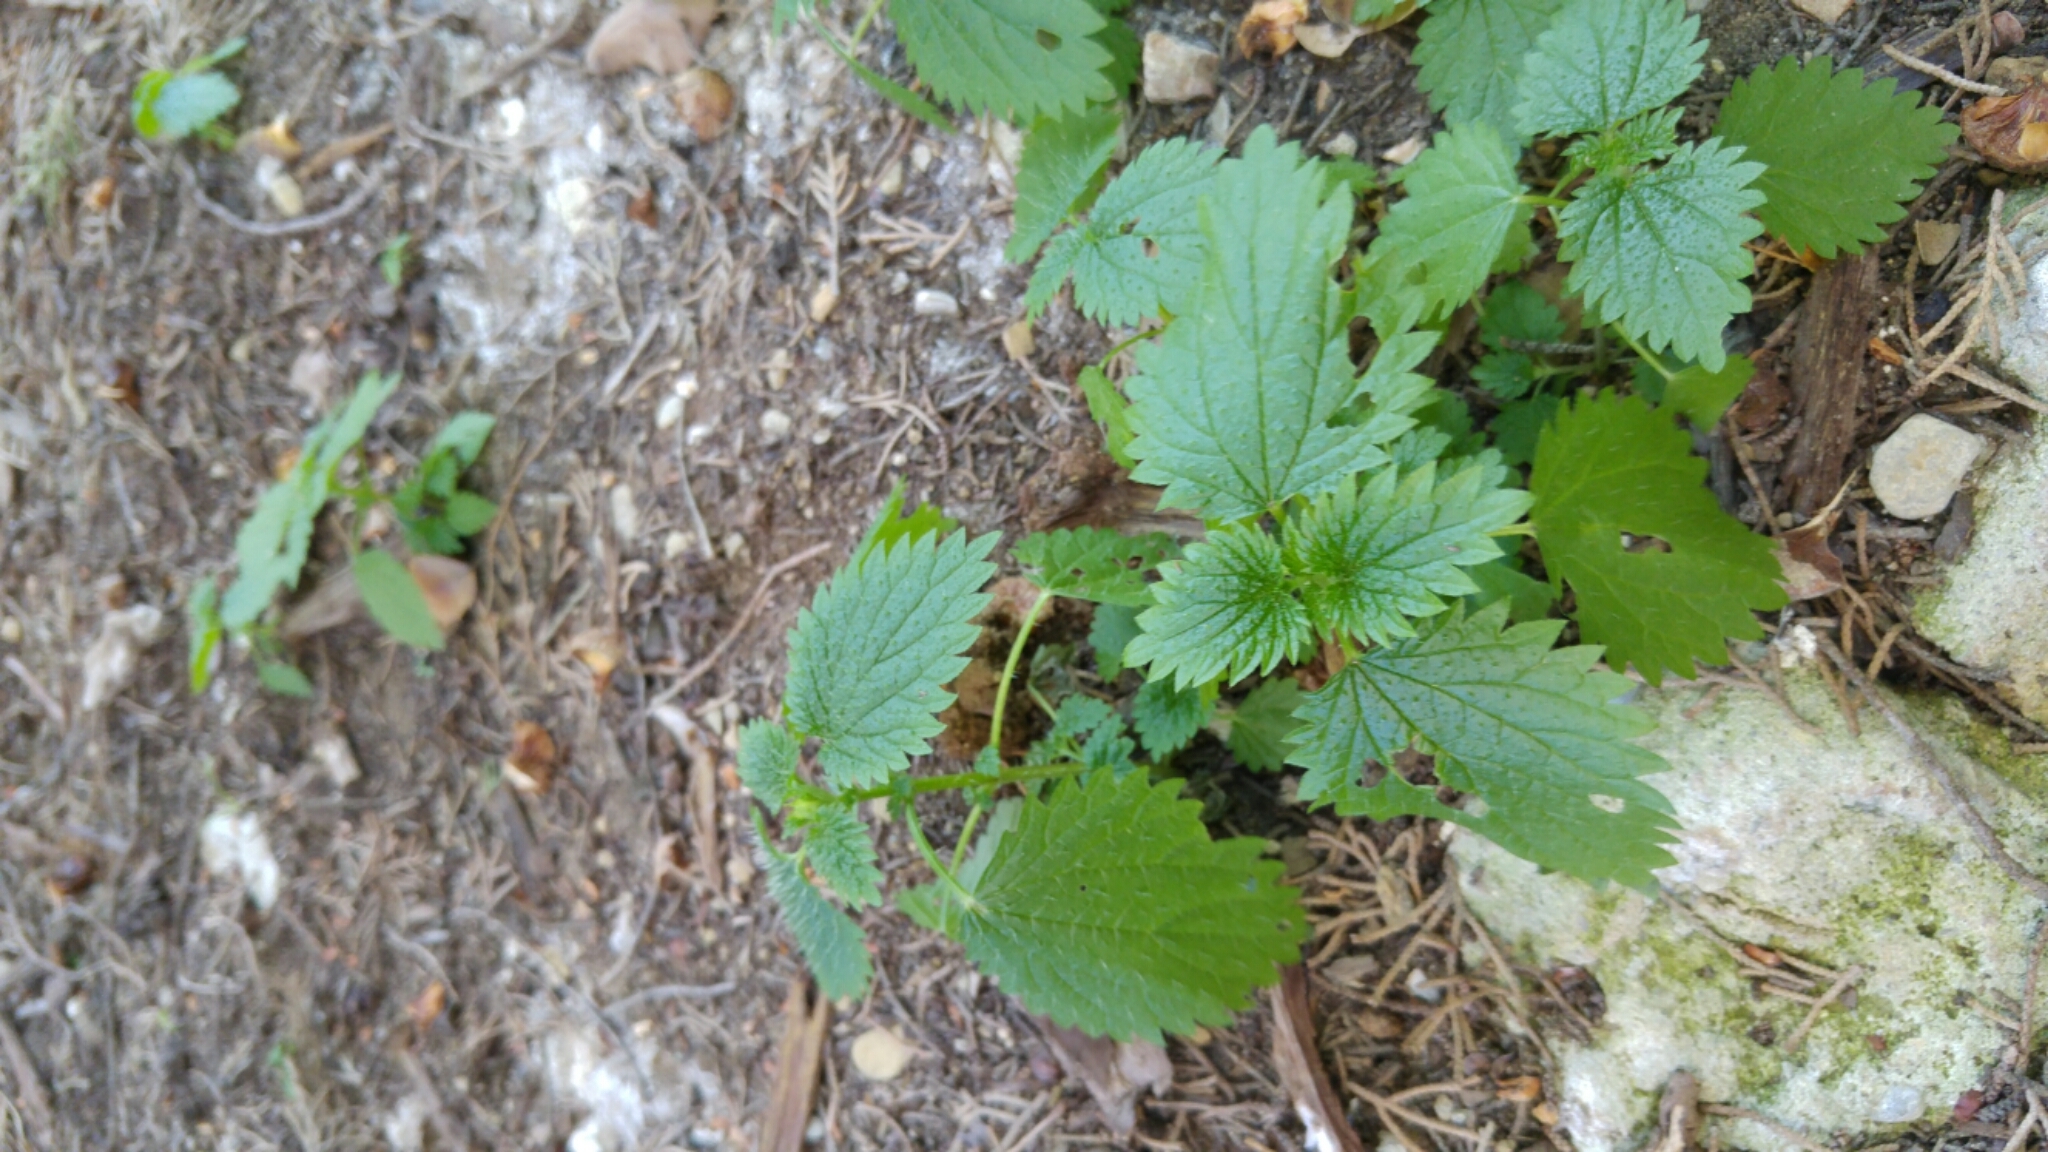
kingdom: Plantae
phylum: Tracheophyta
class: Magnoliopsida
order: Rosales
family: Urticaceae
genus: Urtica
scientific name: Urtica dioica
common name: Common nettle
